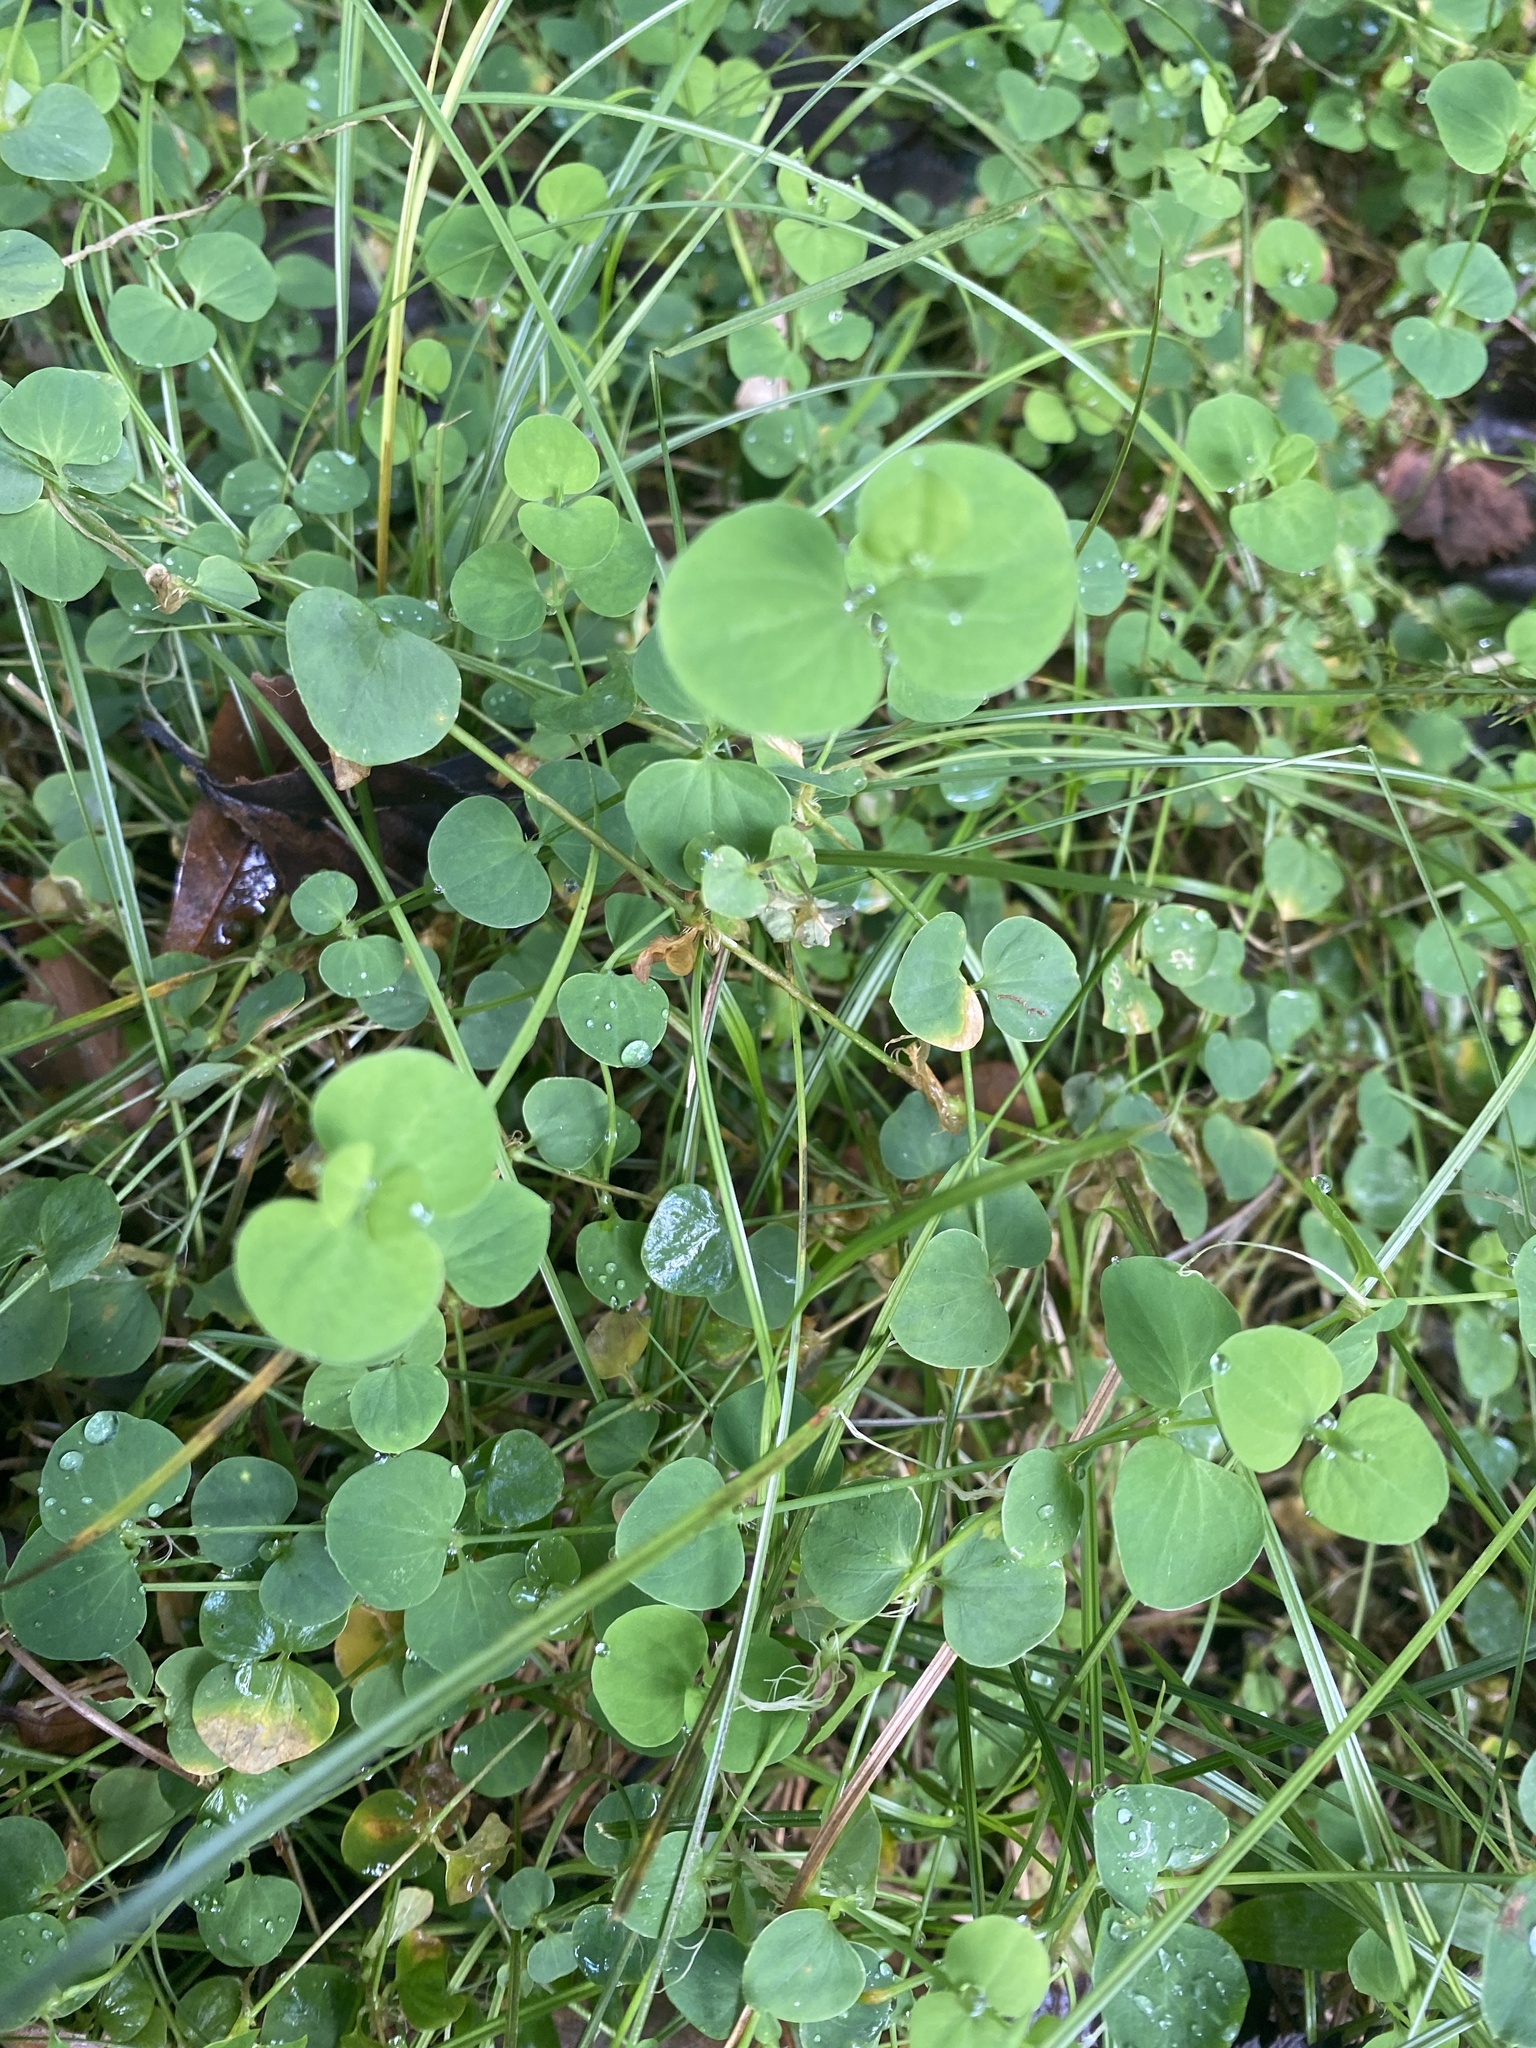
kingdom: Plantae
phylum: Tracheophyta
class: Magnoliopsida
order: Caryophyllales
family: Caryophyllaceae
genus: Drymaria
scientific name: Drymaria cordata
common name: Whitesnow
